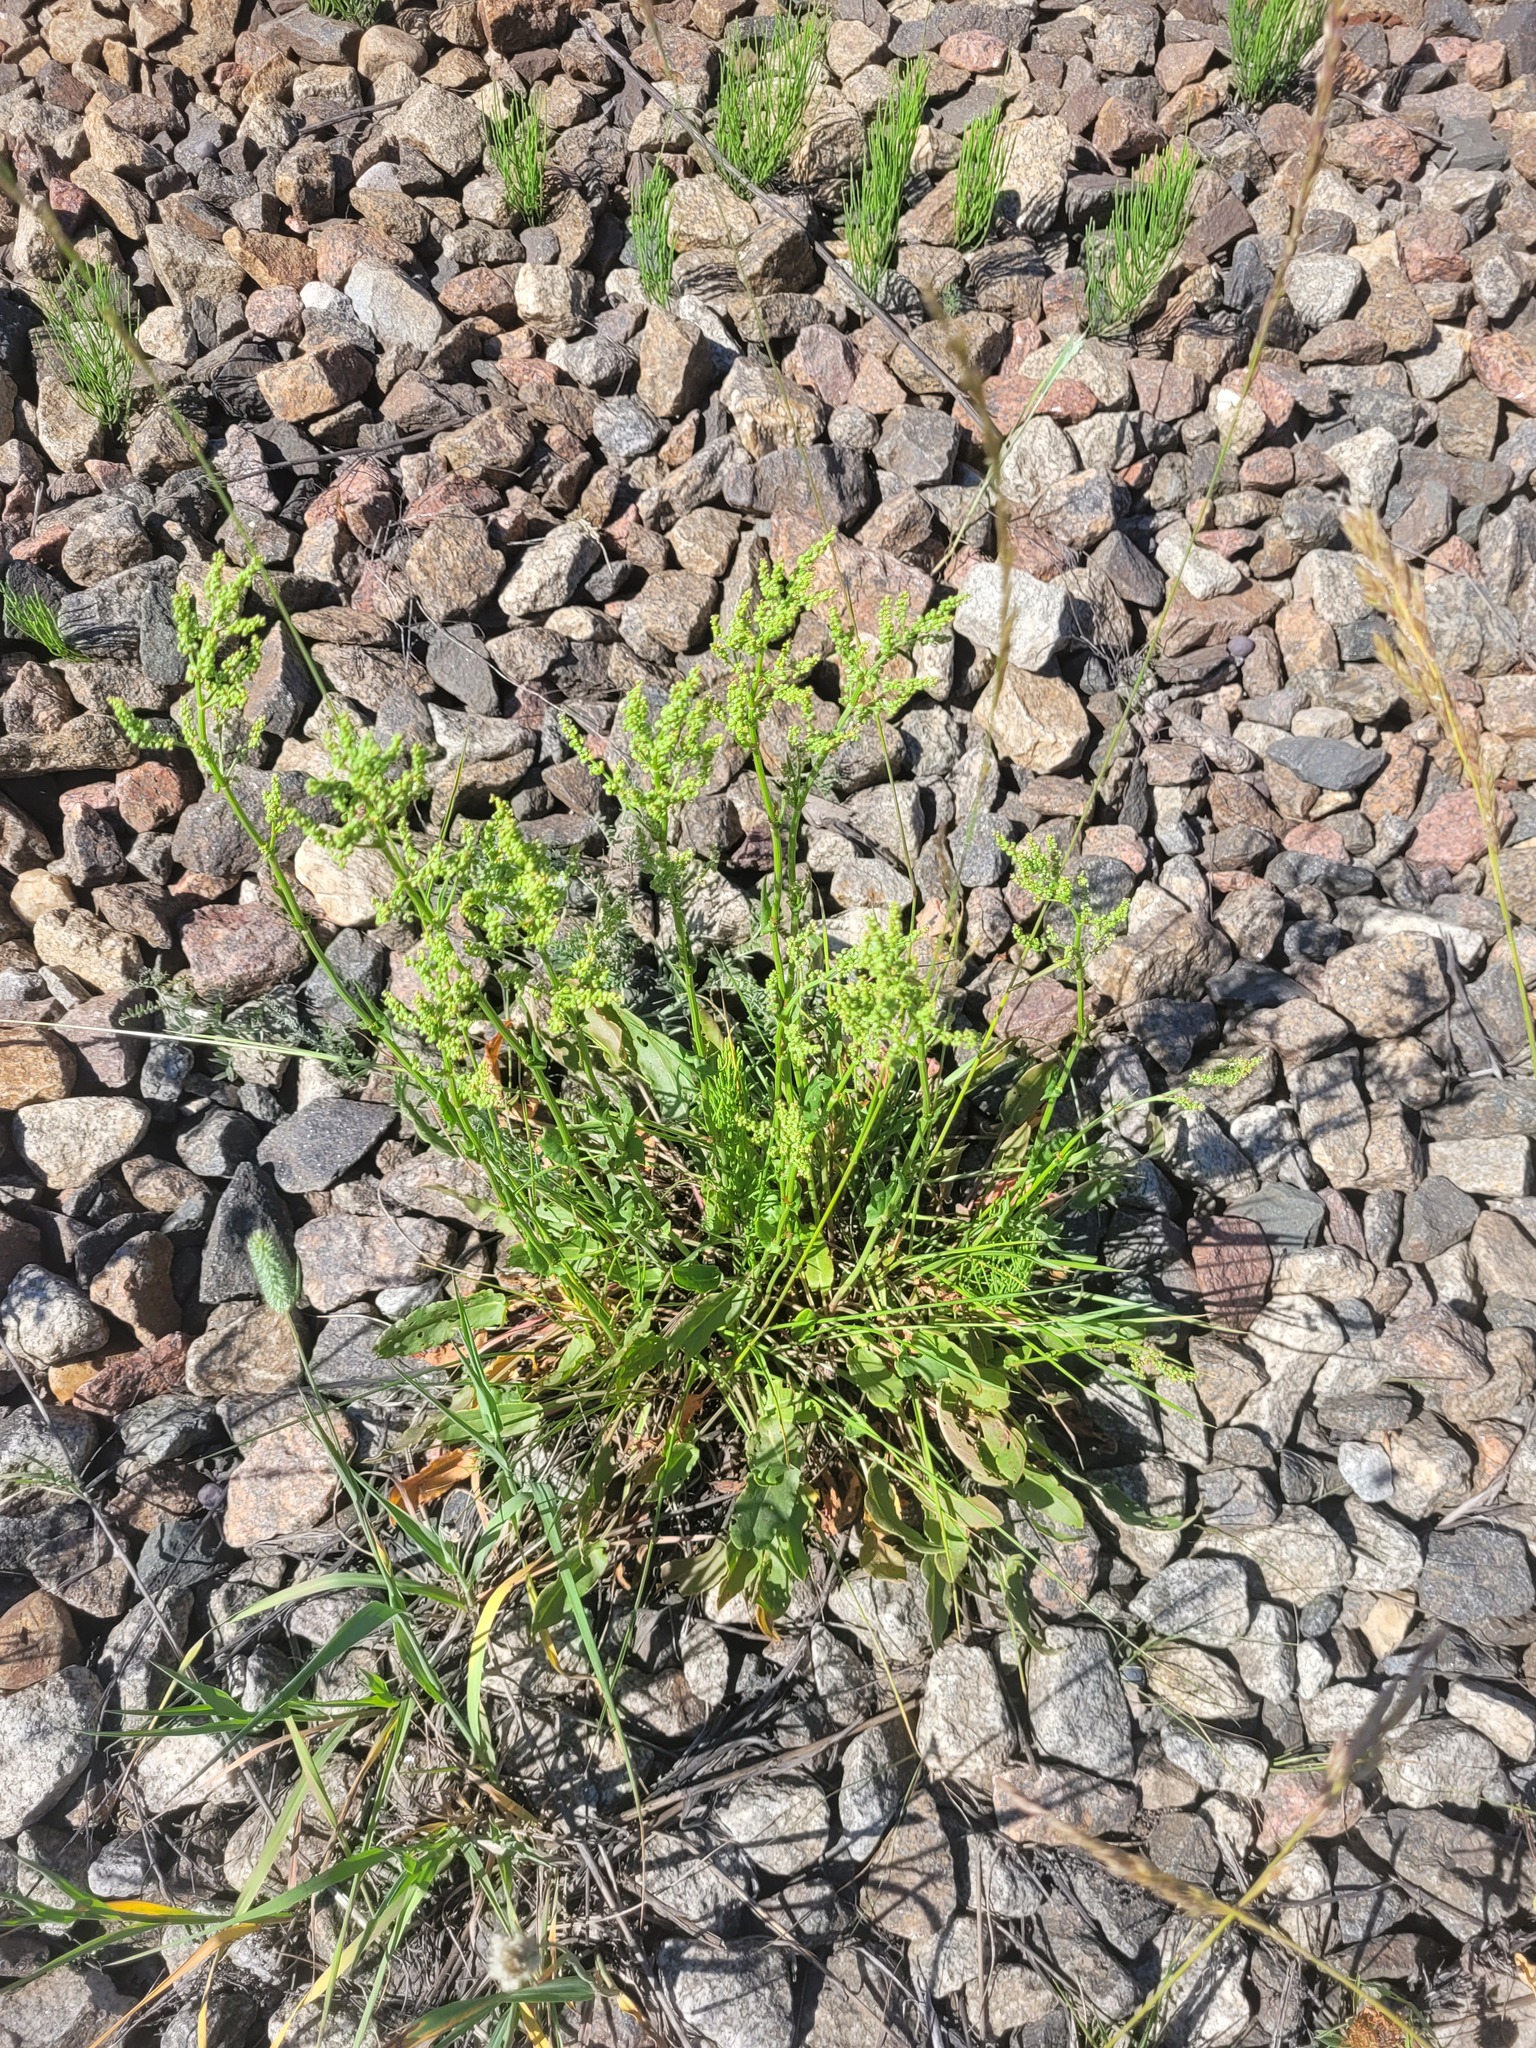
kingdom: Plantae
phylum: Tracheophyta
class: Magnoliopsida
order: Caryophyllales
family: Polygonaceae
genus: Rumex
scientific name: Rumex thyrsiflorus
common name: Garden sorrel
